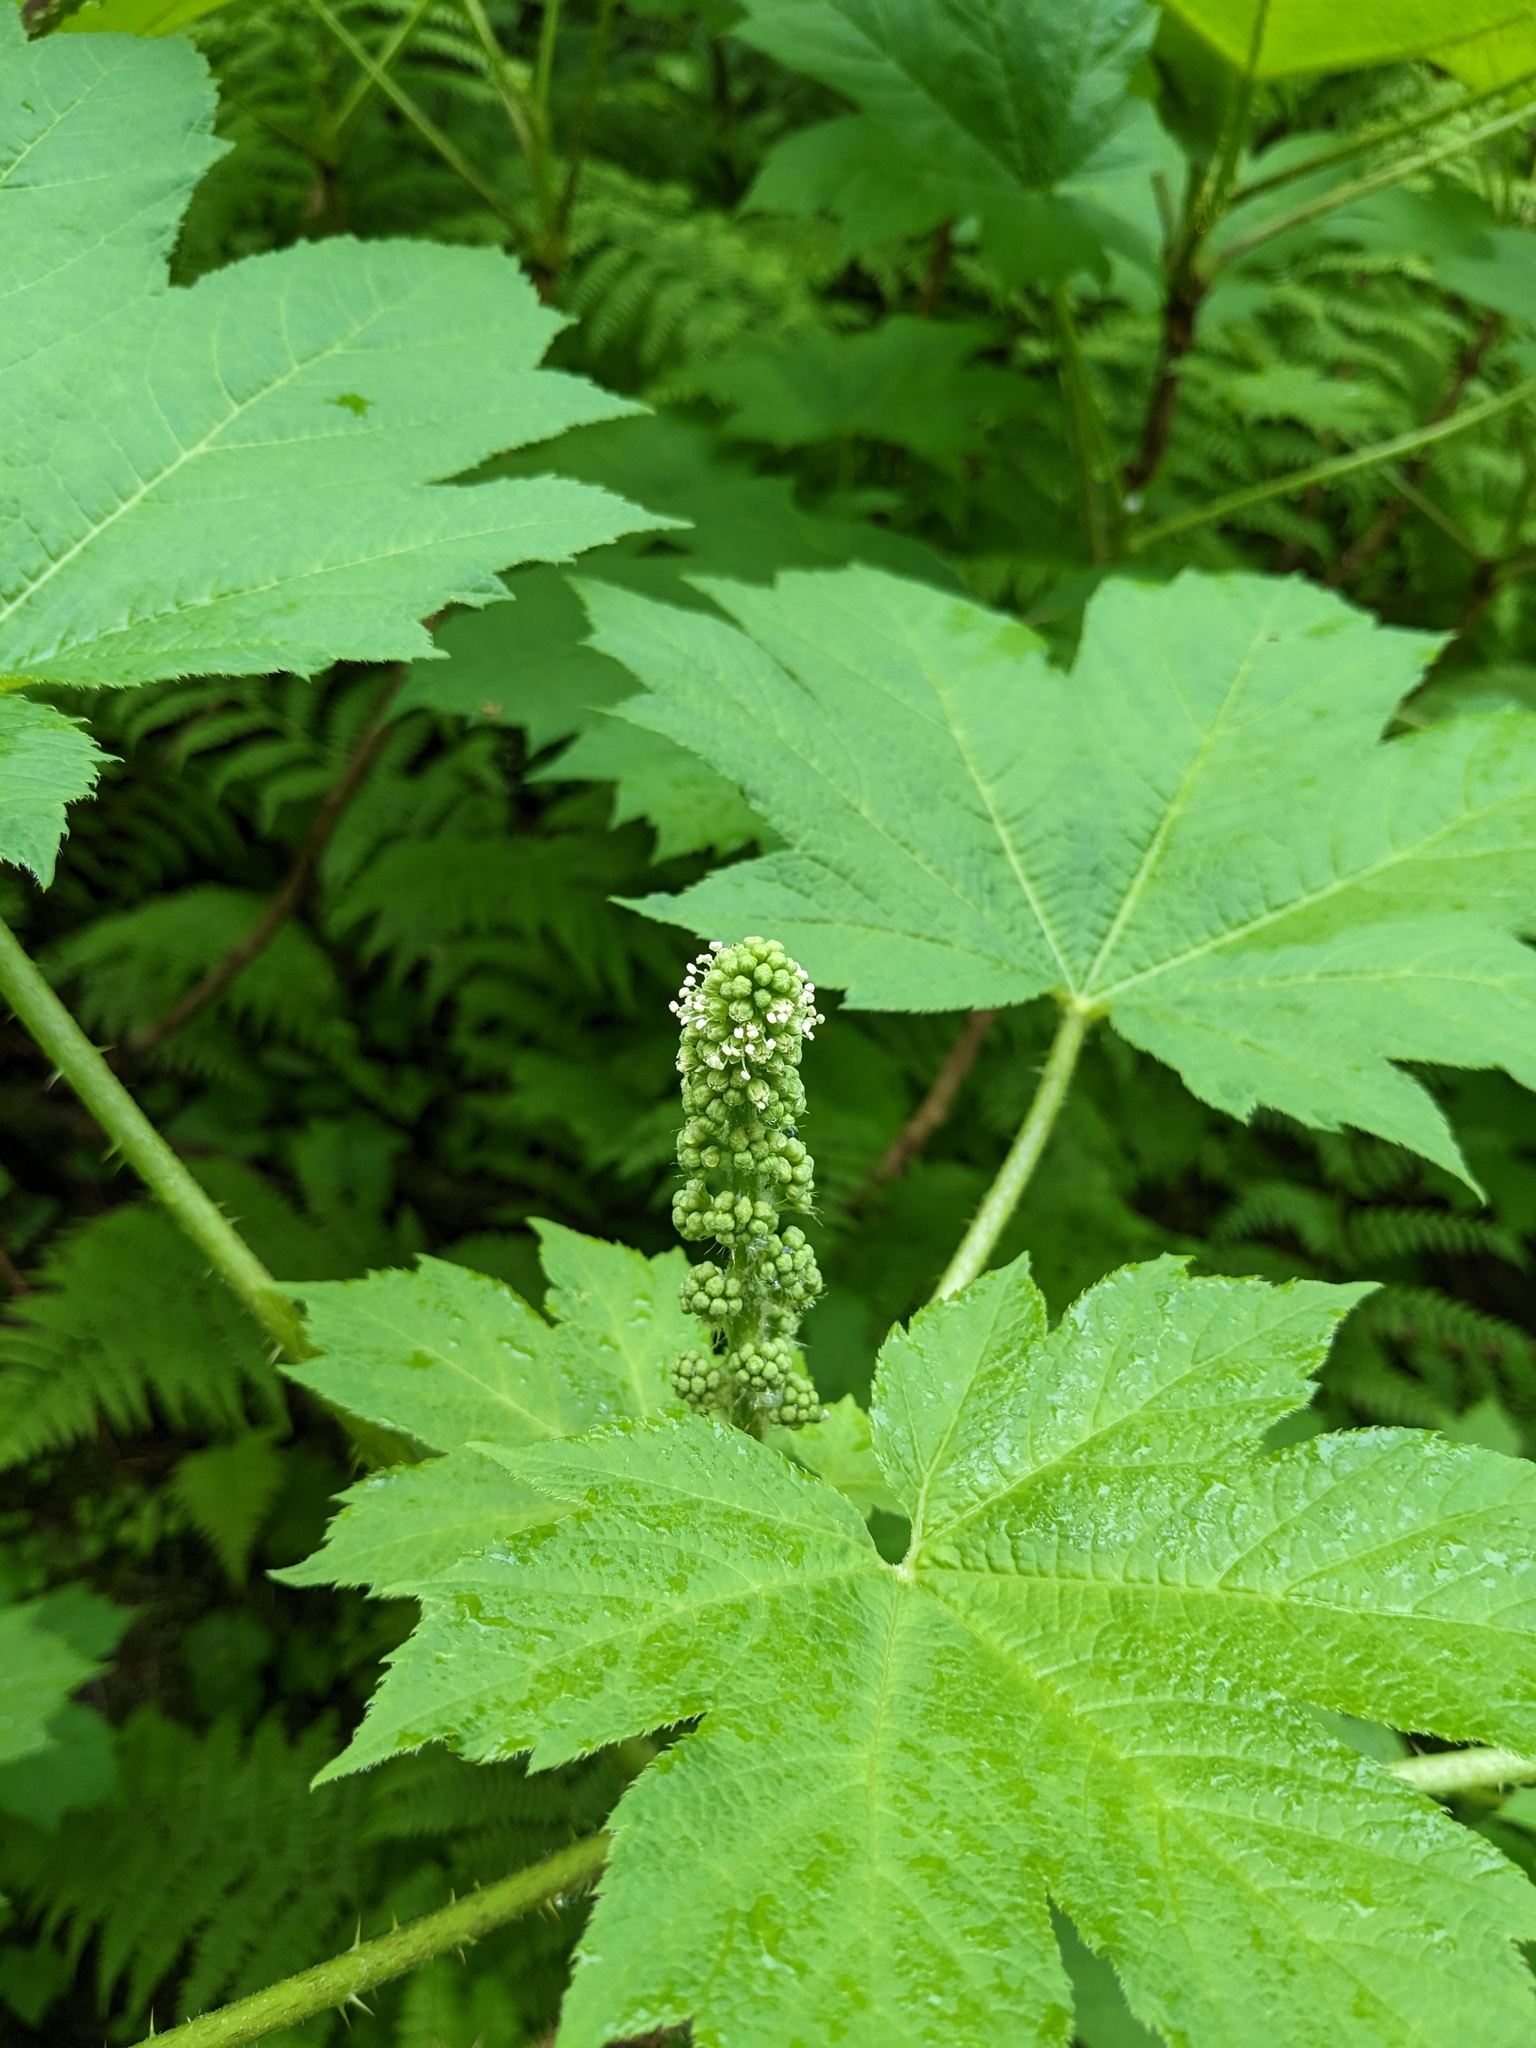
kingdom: Plantae
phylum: Tracheophyta
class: Magnoliopsida
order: Apiales
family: Araliaceae
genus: Oplopanax
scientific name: Oplopanax horridus
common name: Devil's walking-stick
